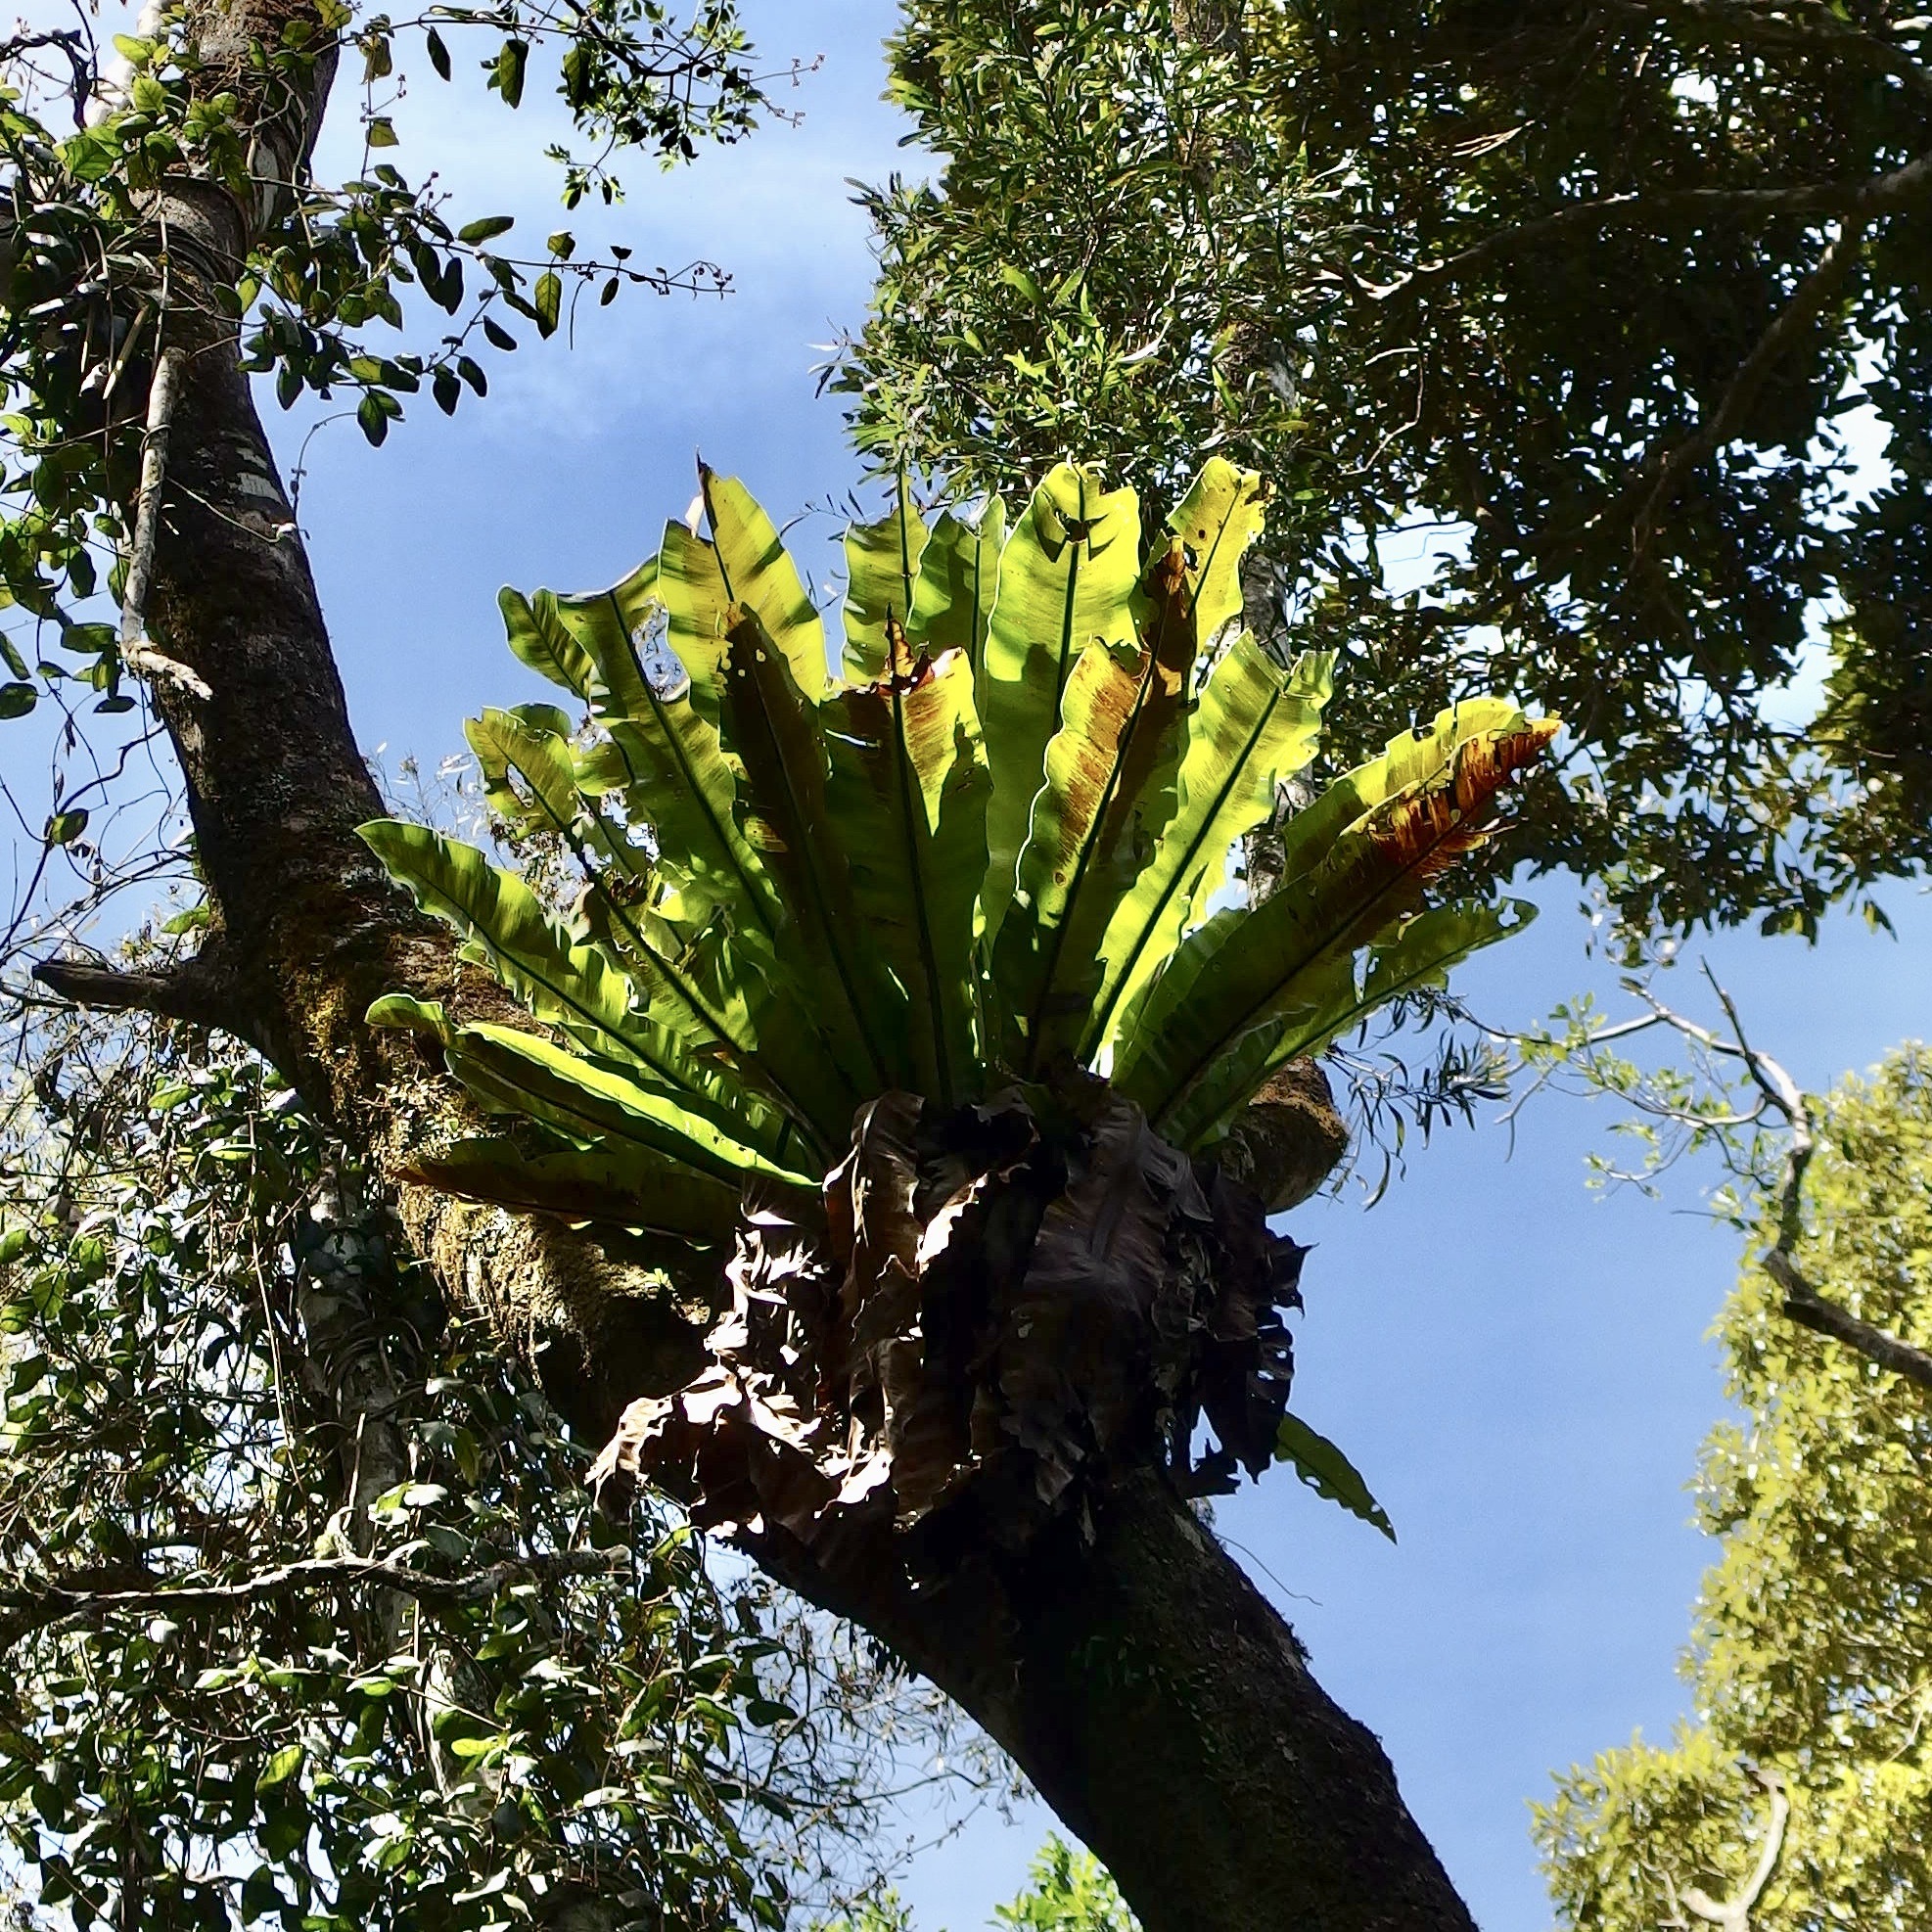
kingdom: Plantae
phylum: Tracheophyta
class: Polypodiopsida
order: Polypodiales
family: Aspleniaceae
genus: Asplenium
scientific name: Asplenium australasicum
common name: Bird's-nest fern
